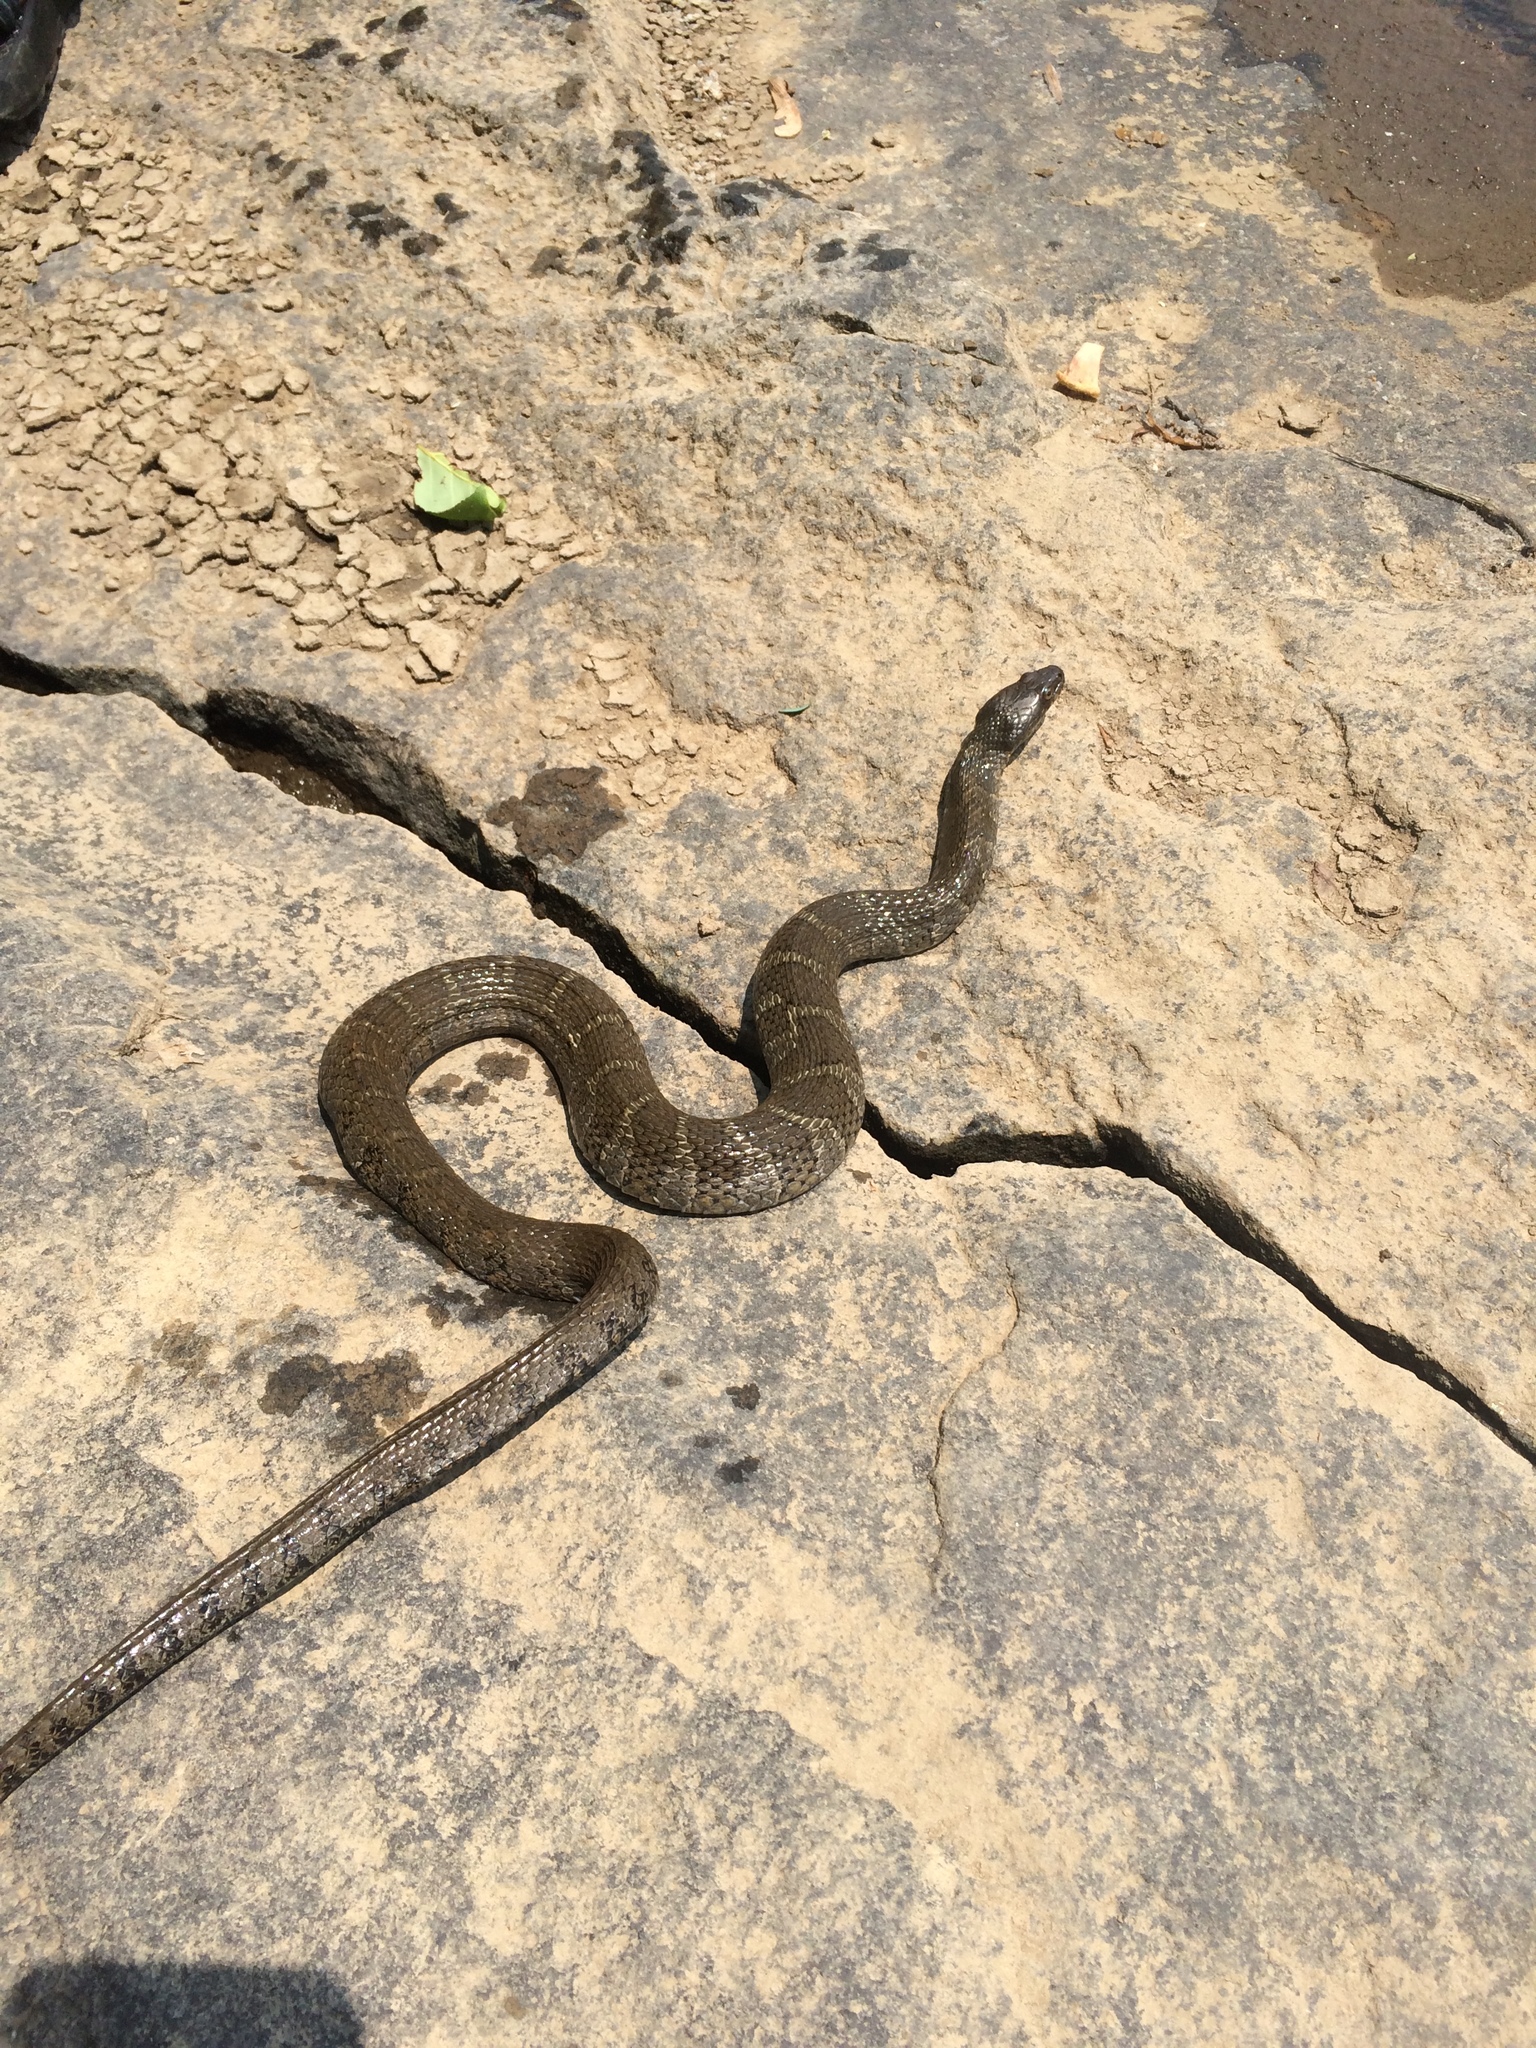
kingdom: Animalia
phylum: Chordata
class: Squamata
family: Colubridae
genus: Nerodia
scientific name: Nerodia sipedon
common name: Northern water snake
